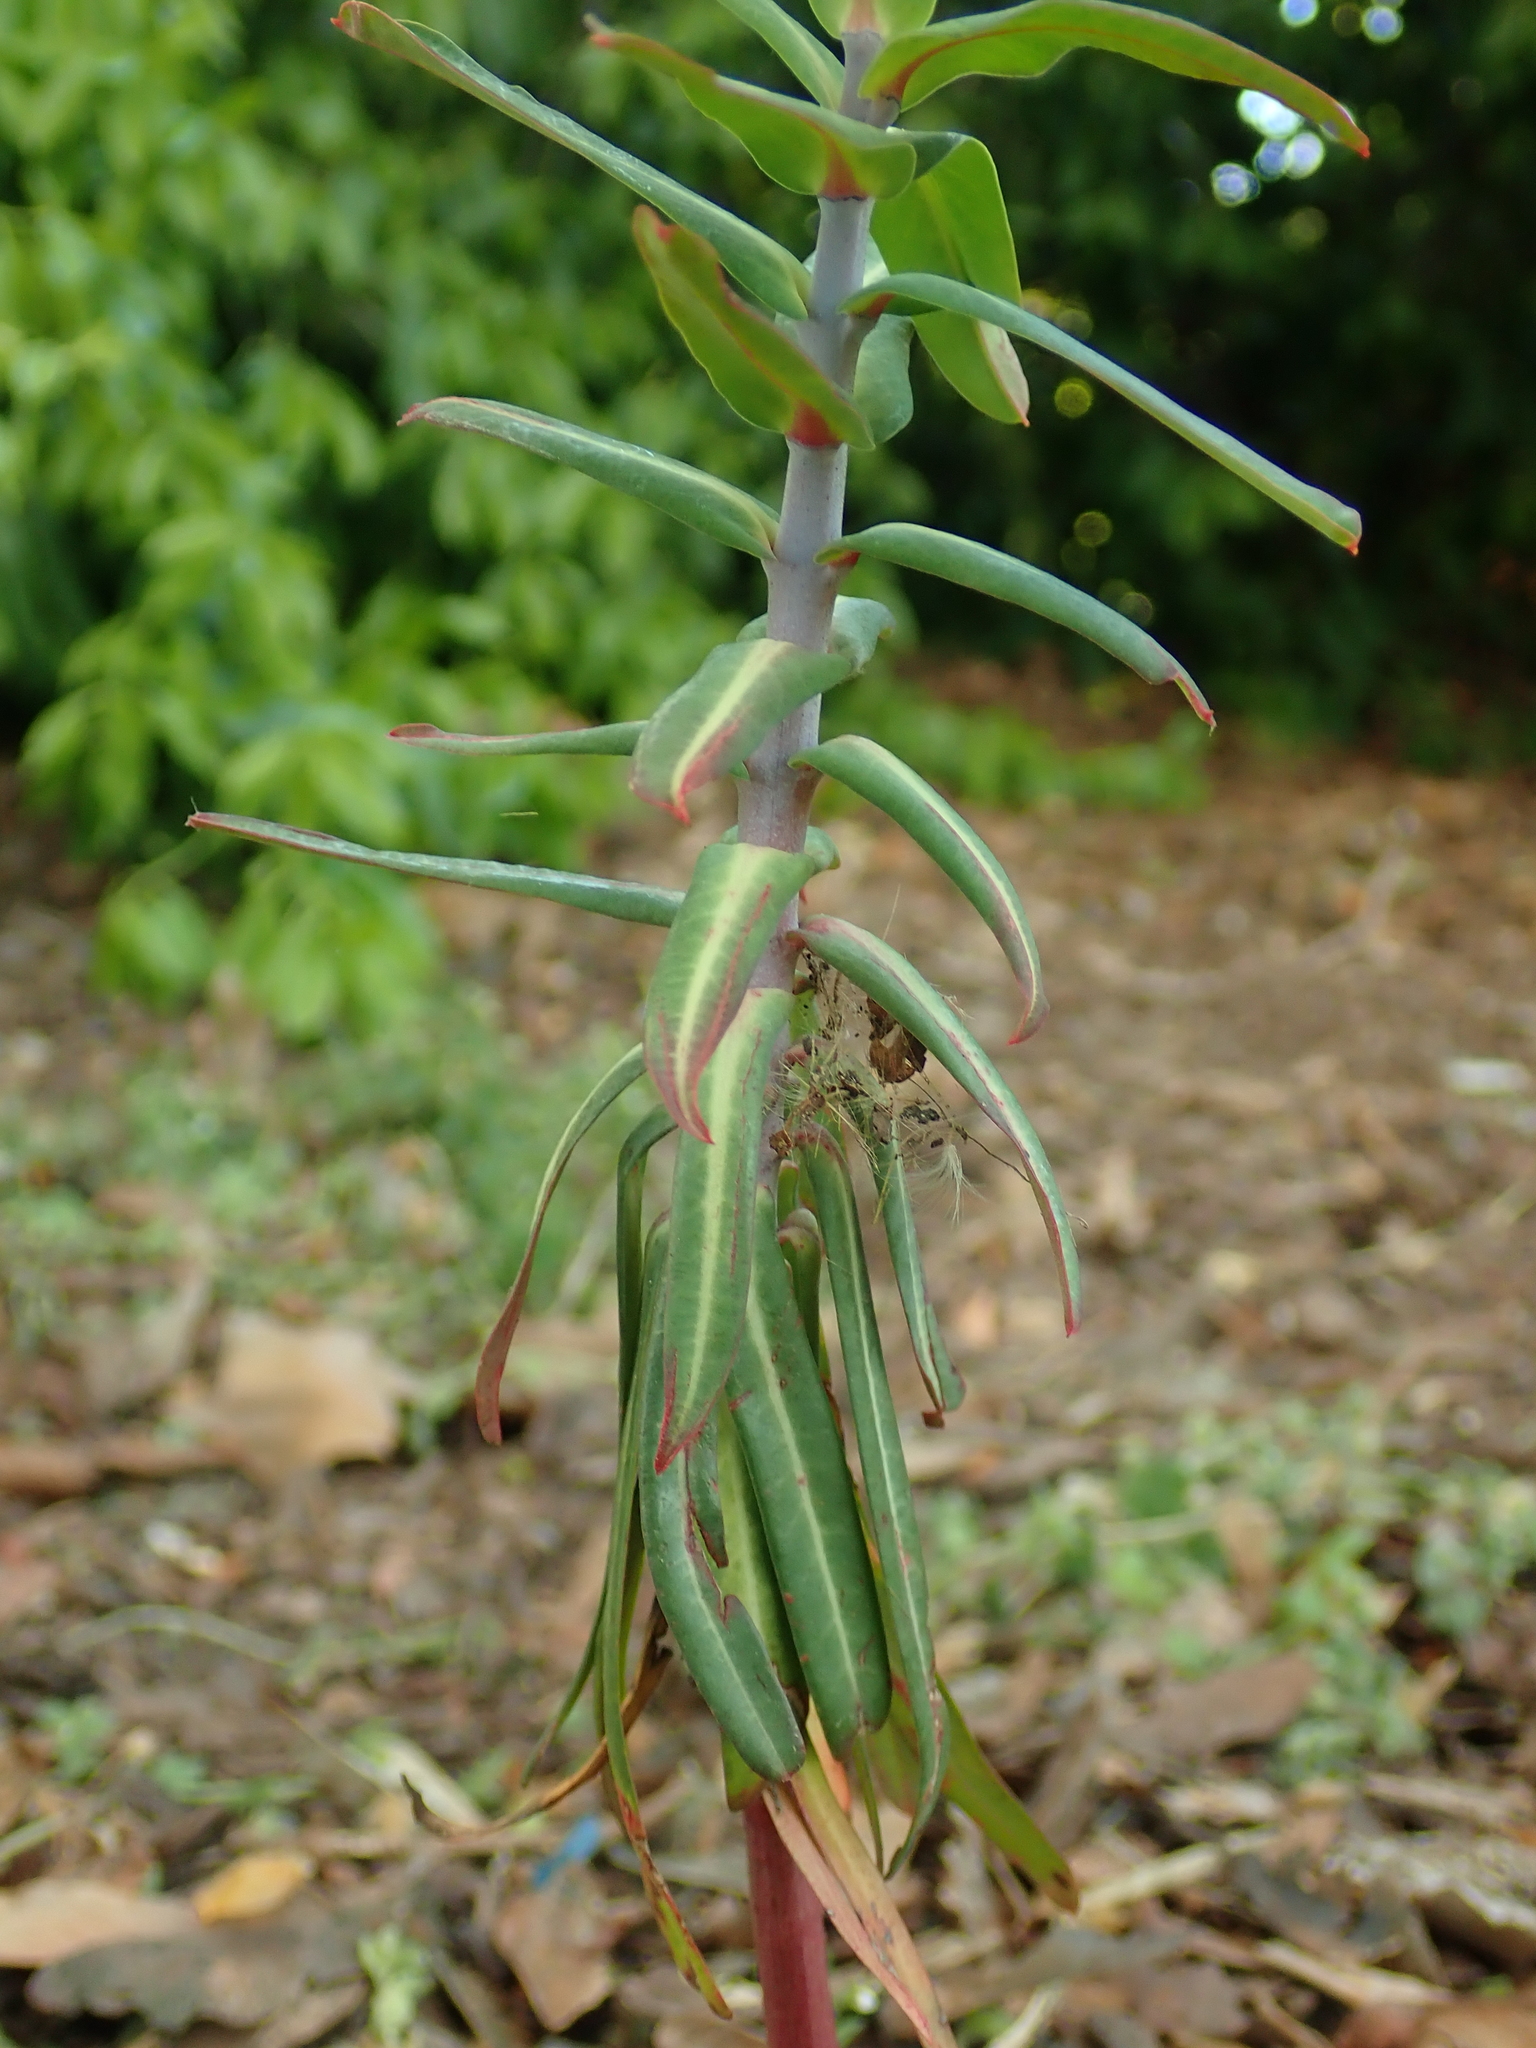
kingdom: Plantae
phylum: Tracheophyta
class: Magnoliopsida
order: Malpighiales
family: Euphorbiaceae
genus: Euphorbia
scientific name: Euphorbia lathyris
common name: Caper spurge
